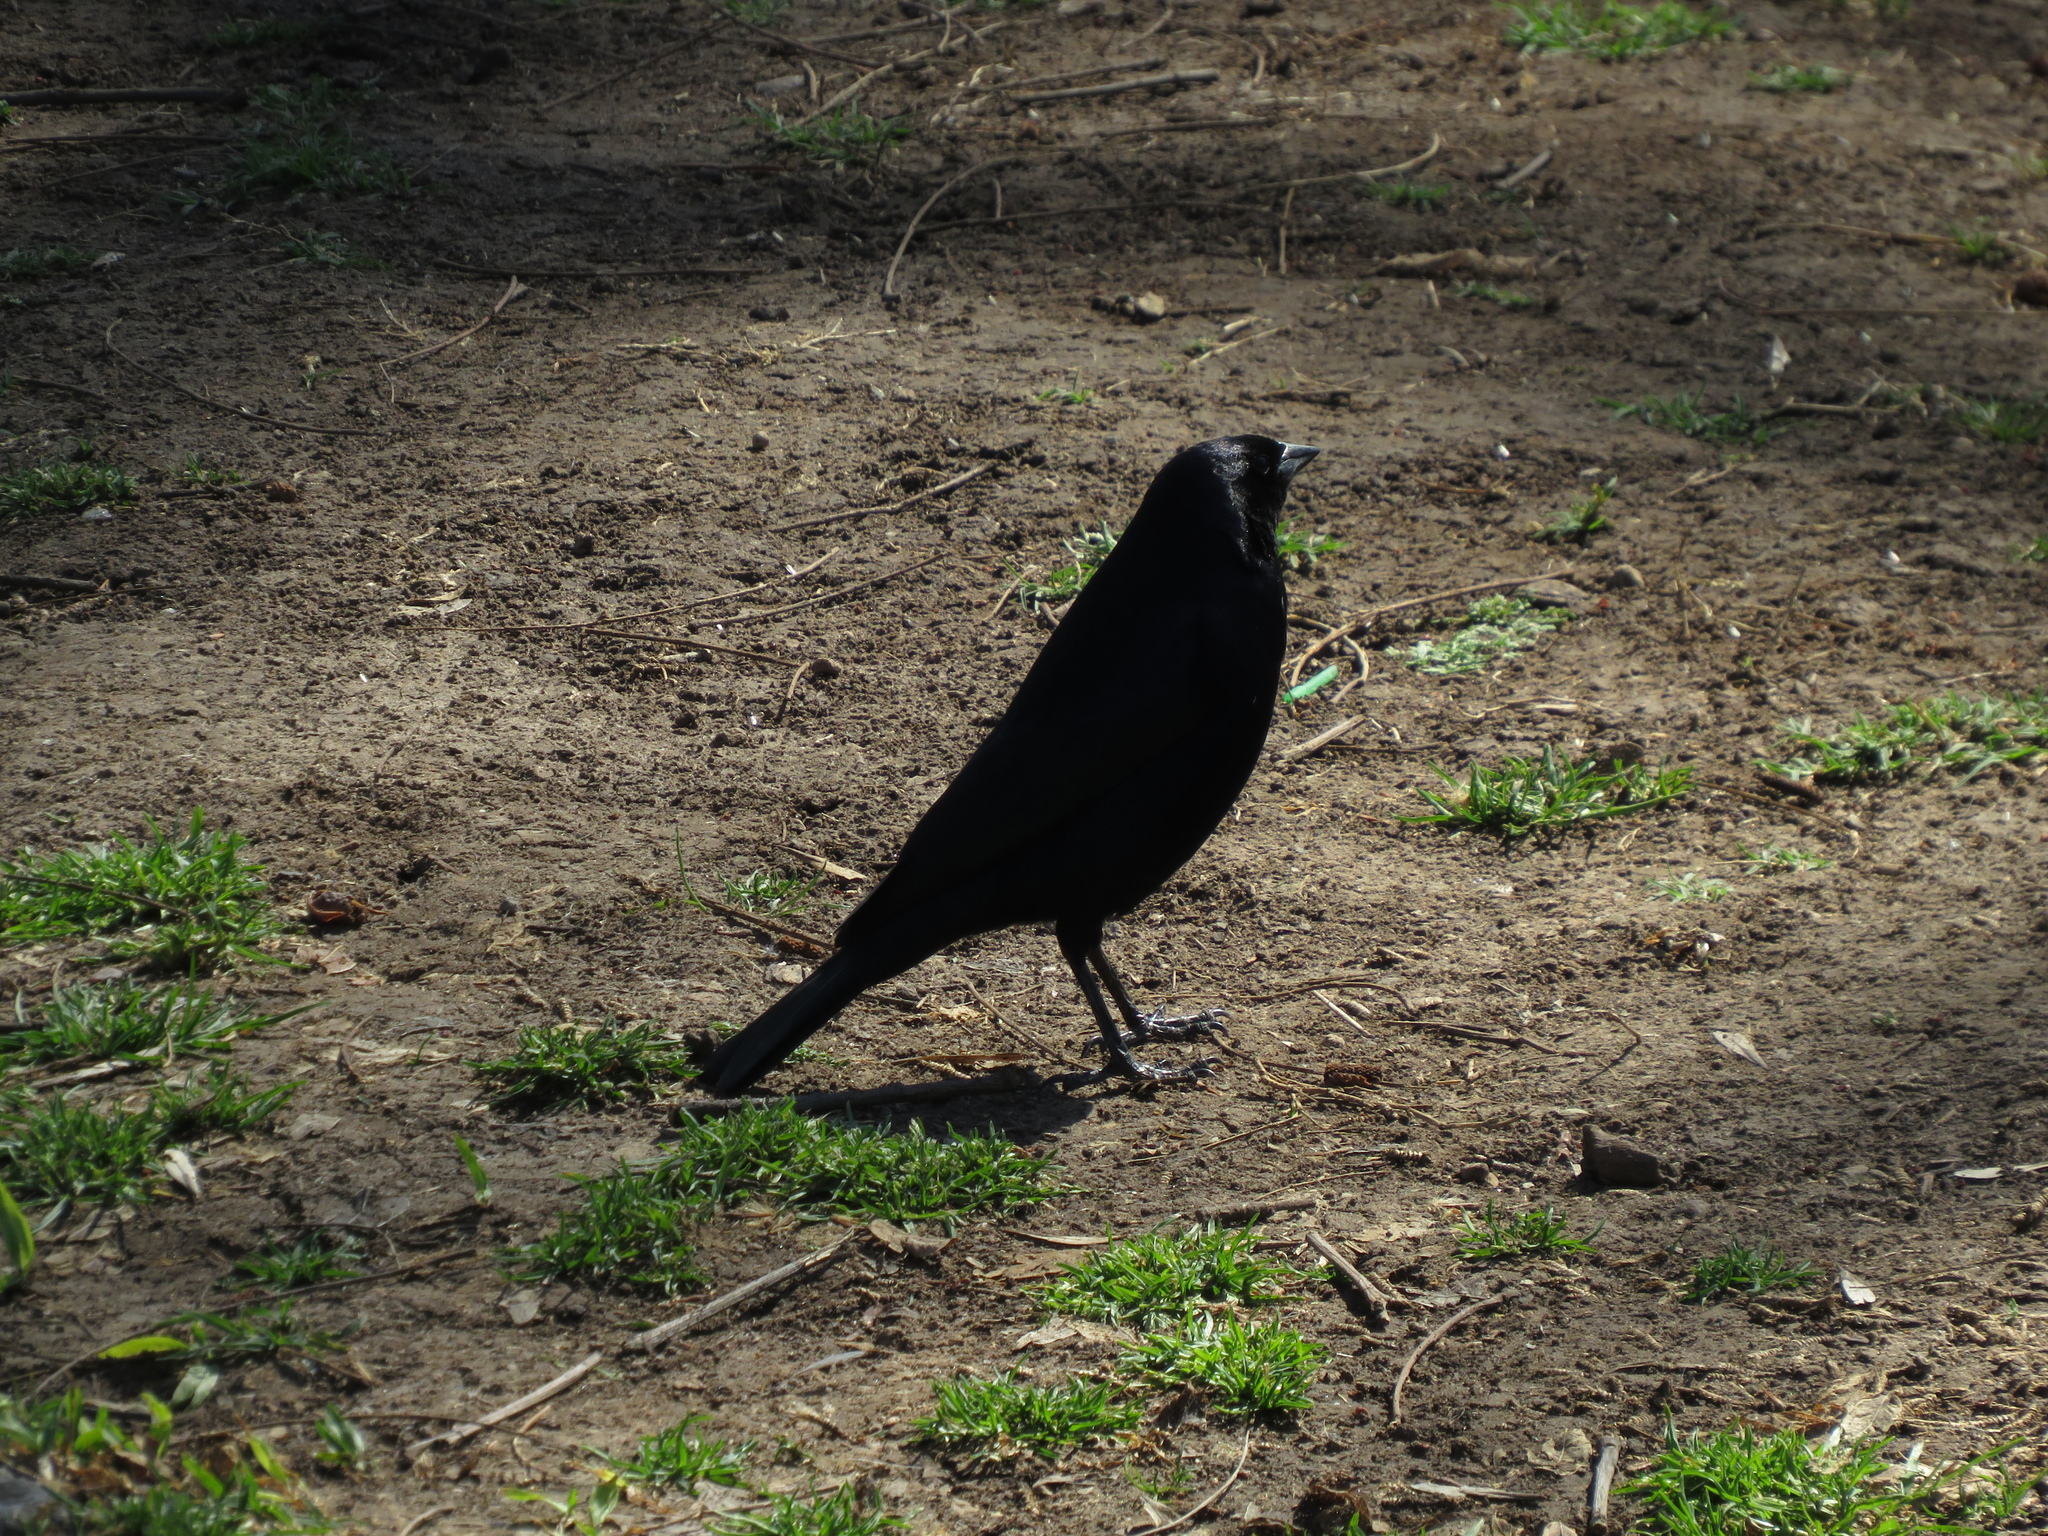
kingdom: Animalia
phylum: Chordata
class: Aves
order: Passeriformes
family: Icteridae
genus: Molothrus
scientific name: Molothrus bonariensis
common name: Shiny cowbird
